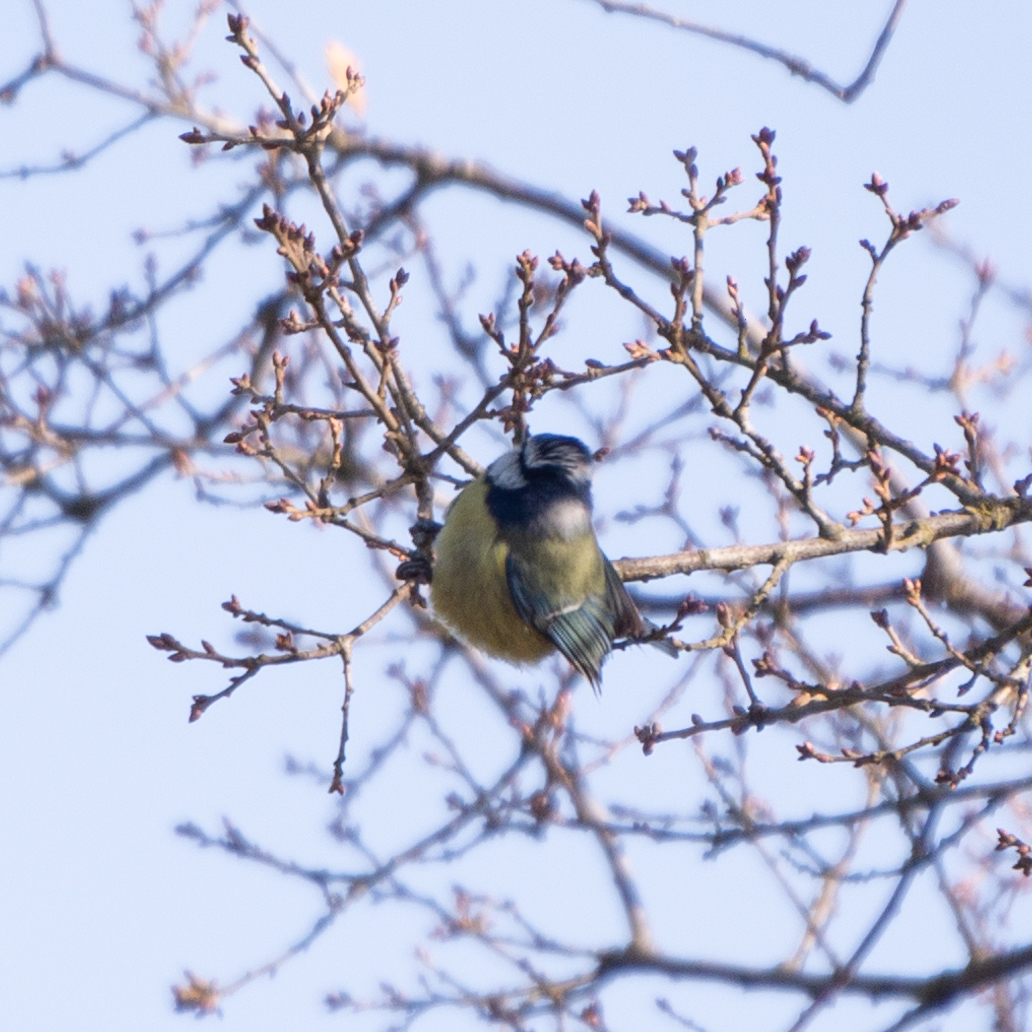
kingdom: Animalia
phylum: Chordata
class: Aves
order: Passeriformes
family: Paridae
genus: Cyanistes
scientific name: Cyanistes caeruleus
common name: Eurasian blue tit
